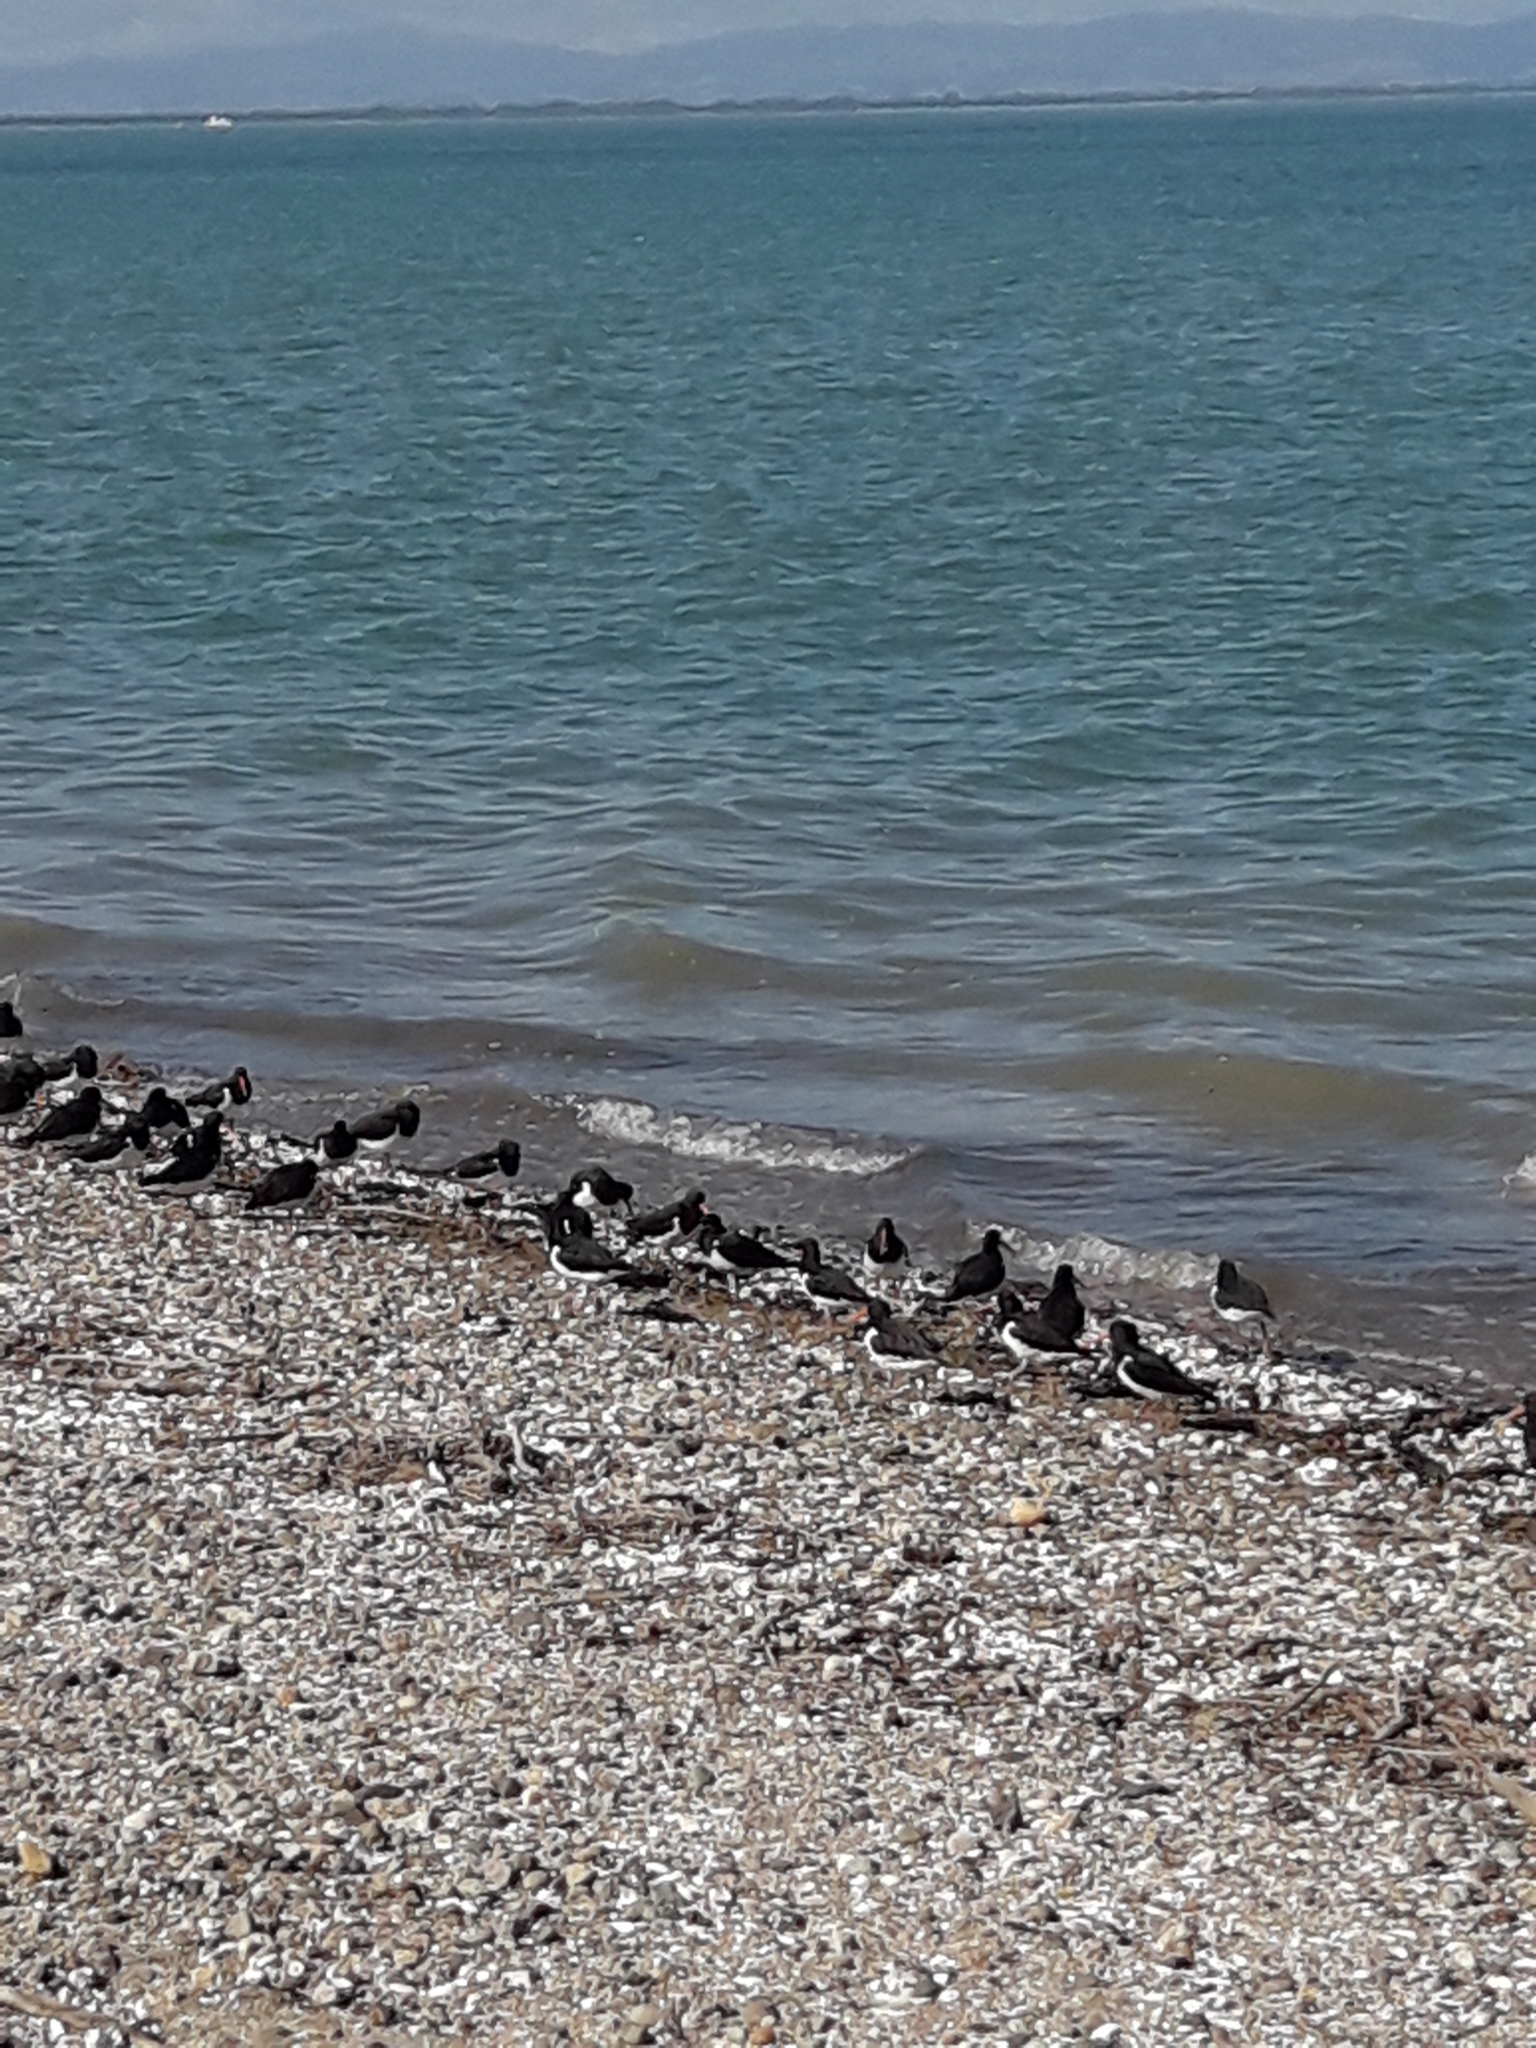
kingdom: Animalia
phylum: Chordata
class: Aves
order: Charadriiformes
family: Haematopodidae
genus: Haematopus
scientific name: Haematopus finschi
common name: South island oystercatcher
